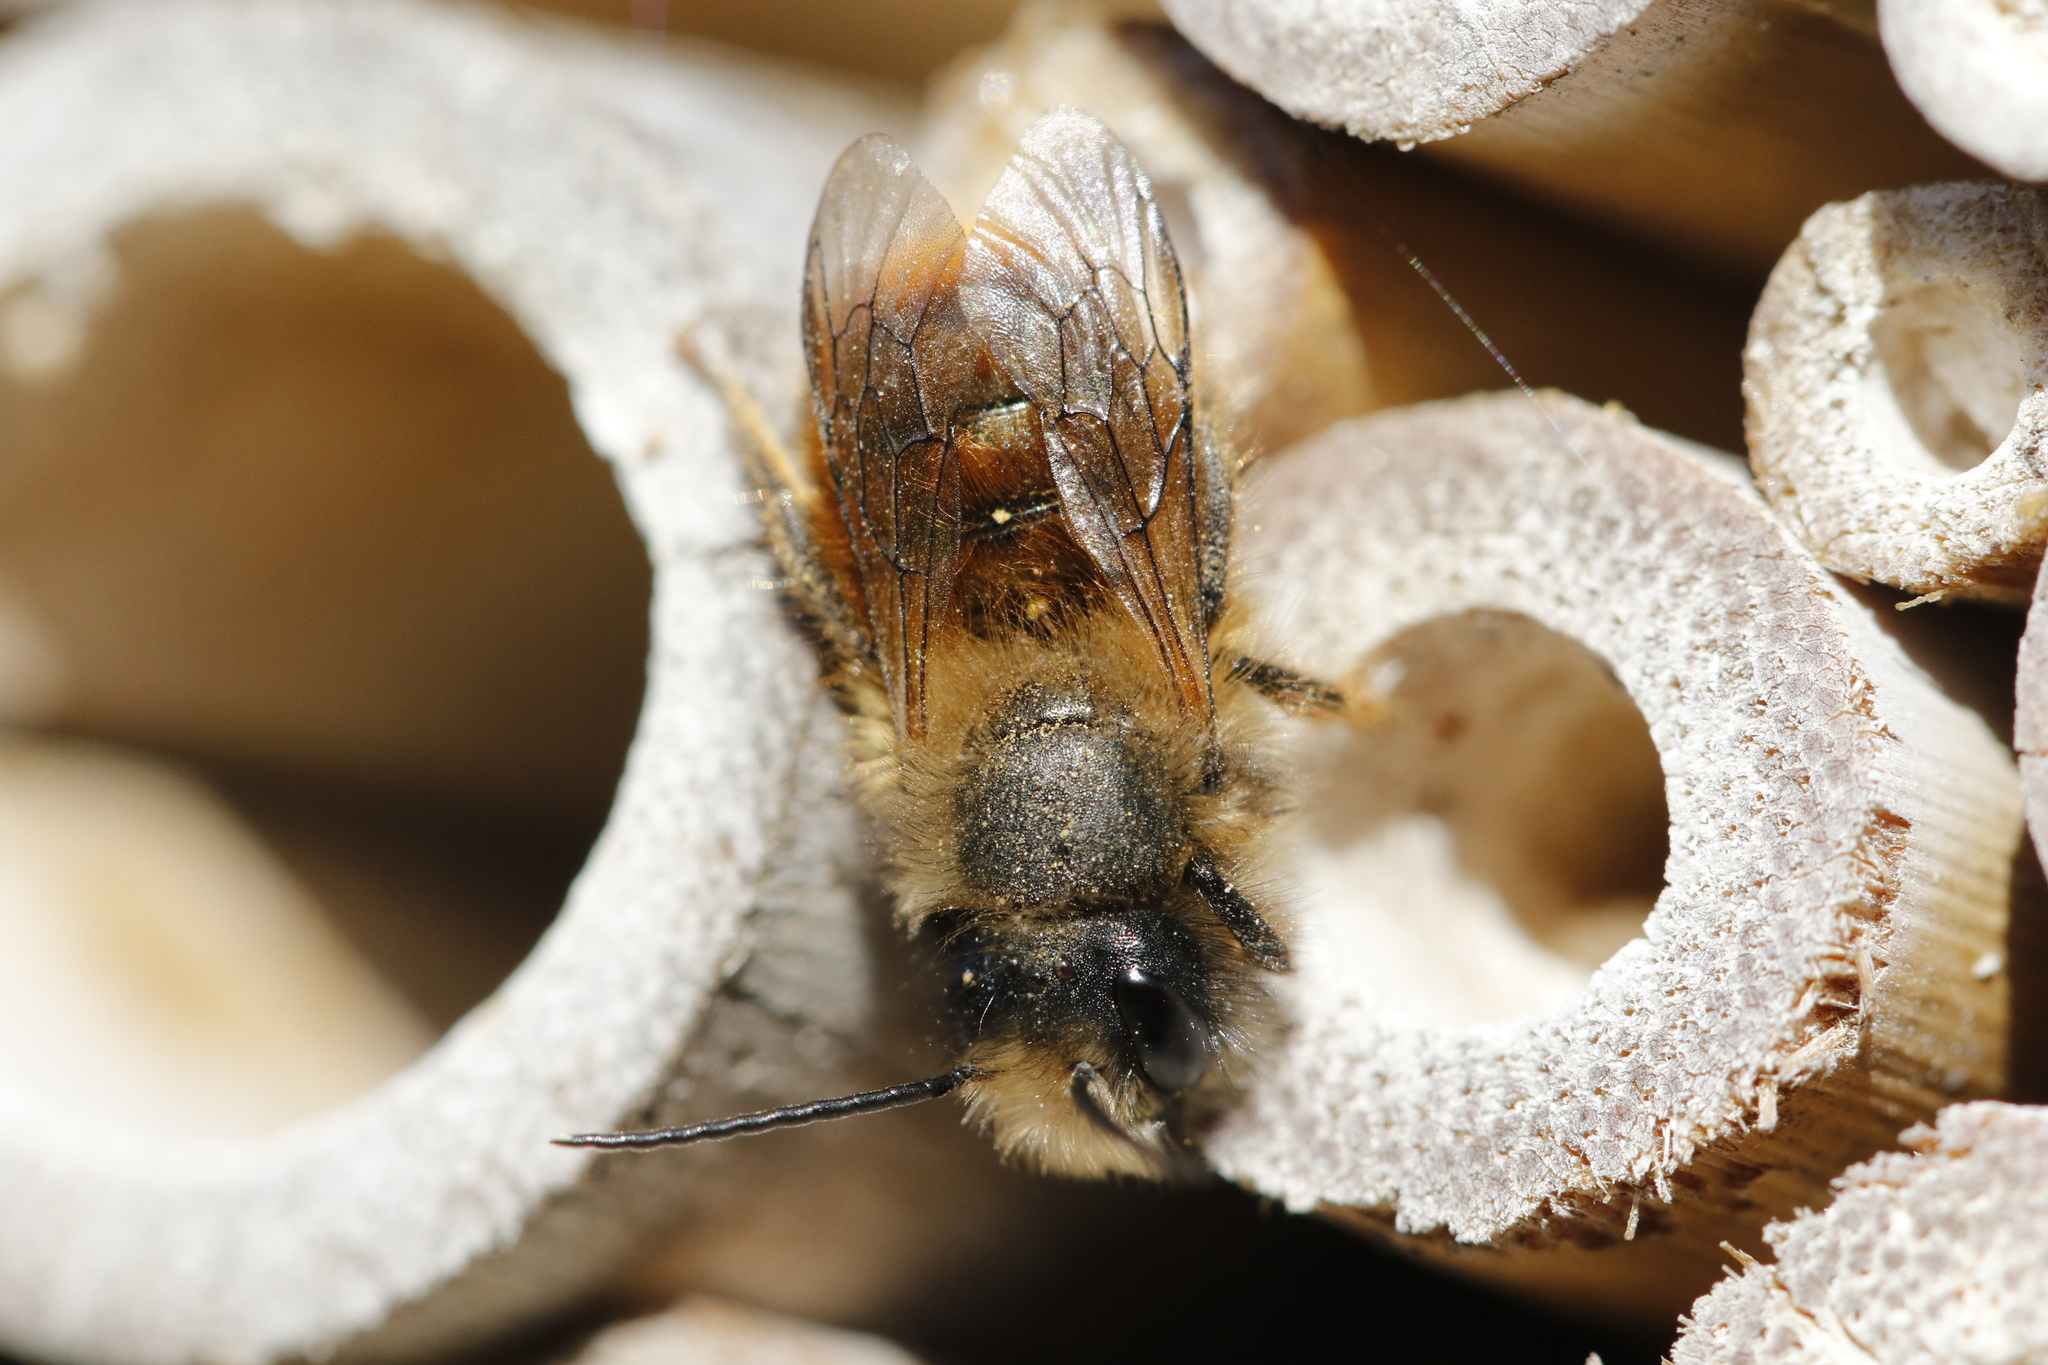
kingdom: Animalia
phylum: Arthropoda
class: Insecta
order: Hymenoptera
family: Megachilidae
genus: Osmia
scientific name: Osmia bicornis
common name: Red mason bee
